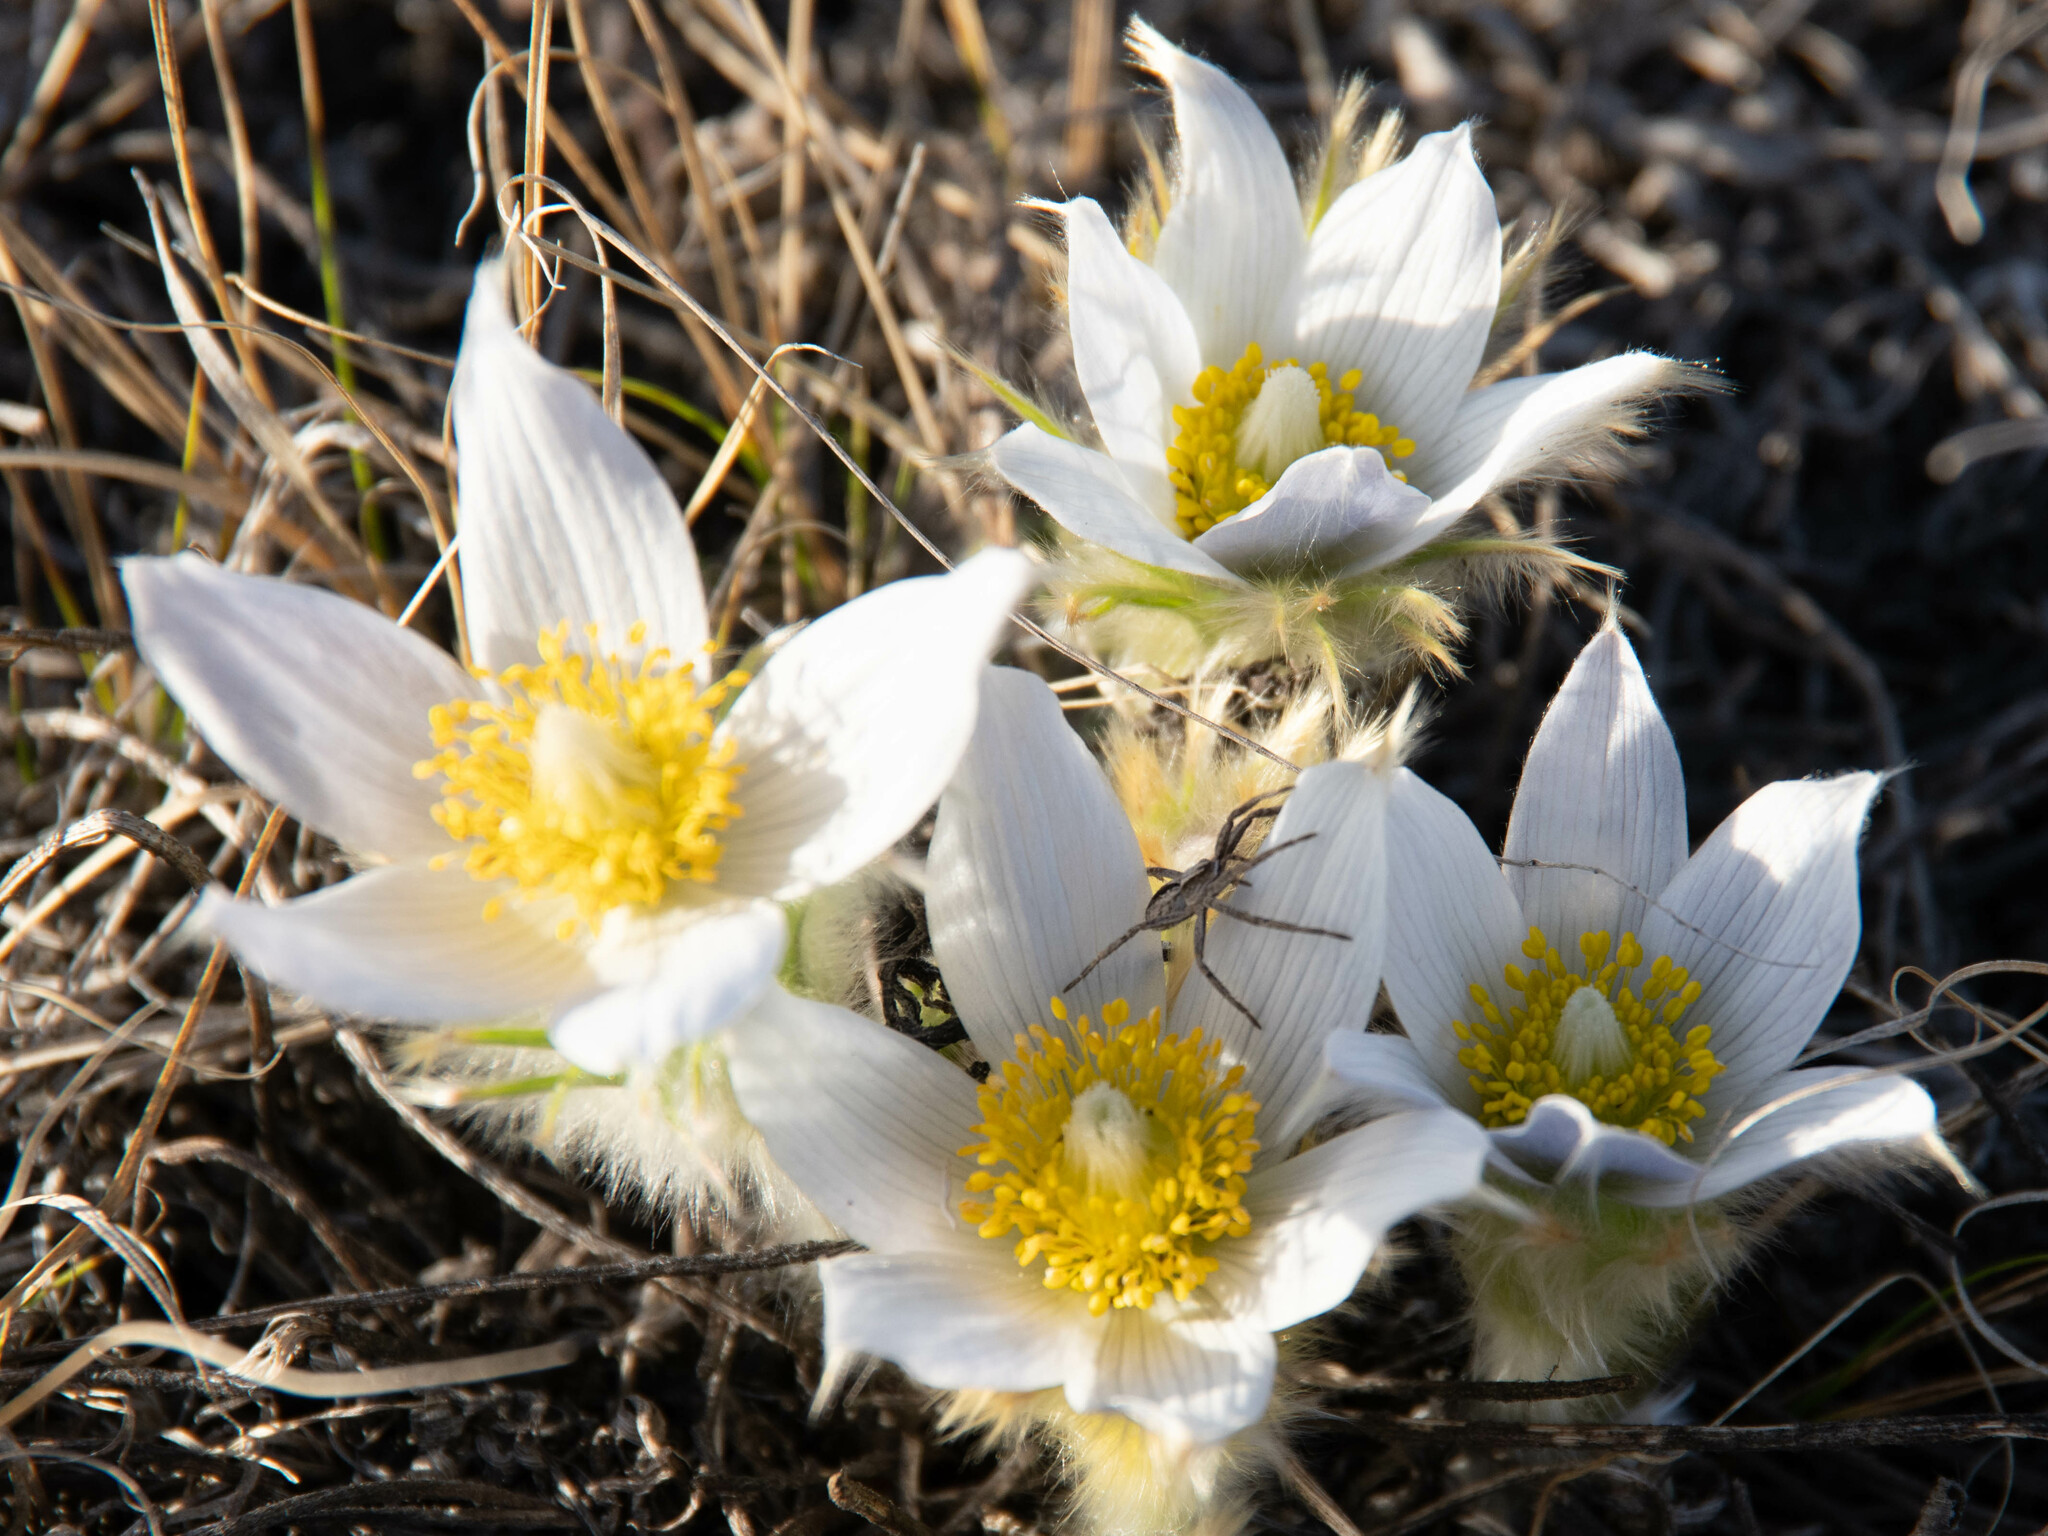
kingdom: Plantae
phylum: Tracheophyta
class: Magnoliopsida
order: Ranunculales
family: Ranunculaceae
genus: Pulsatilla
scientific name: Pulsatilla nuttalliana
